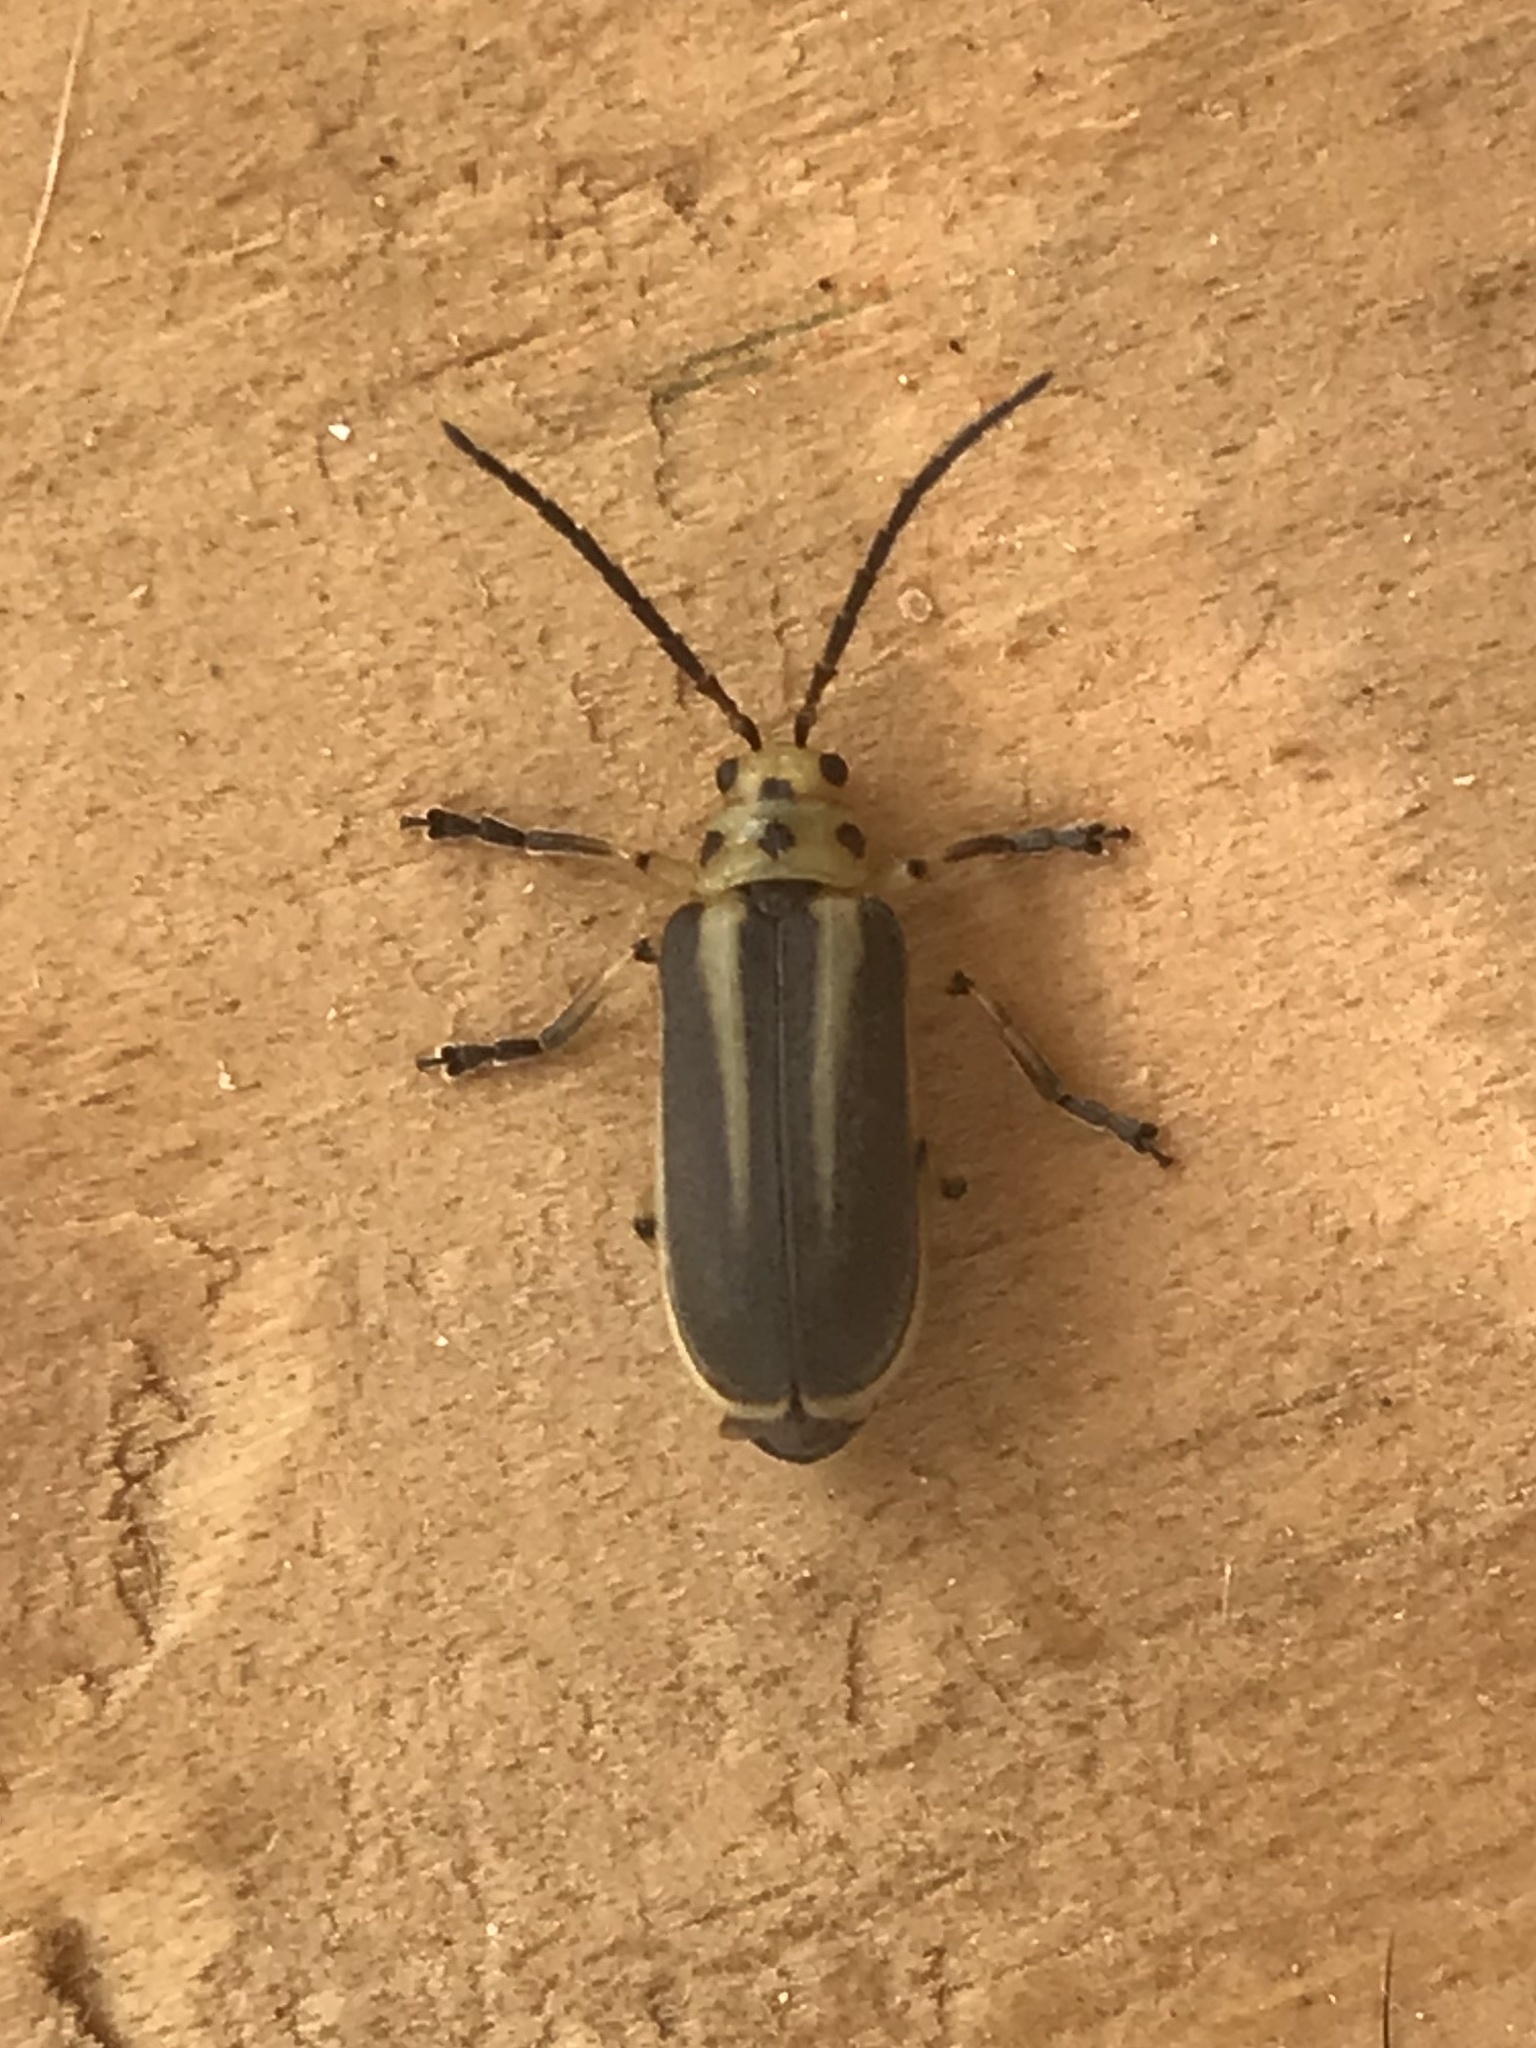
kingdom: Animalia
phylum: Arthropoda
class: Insecta
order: Coleoptera
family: Chrysomelidae
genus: Trirhabda
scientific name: Trirhabda bacharidis
